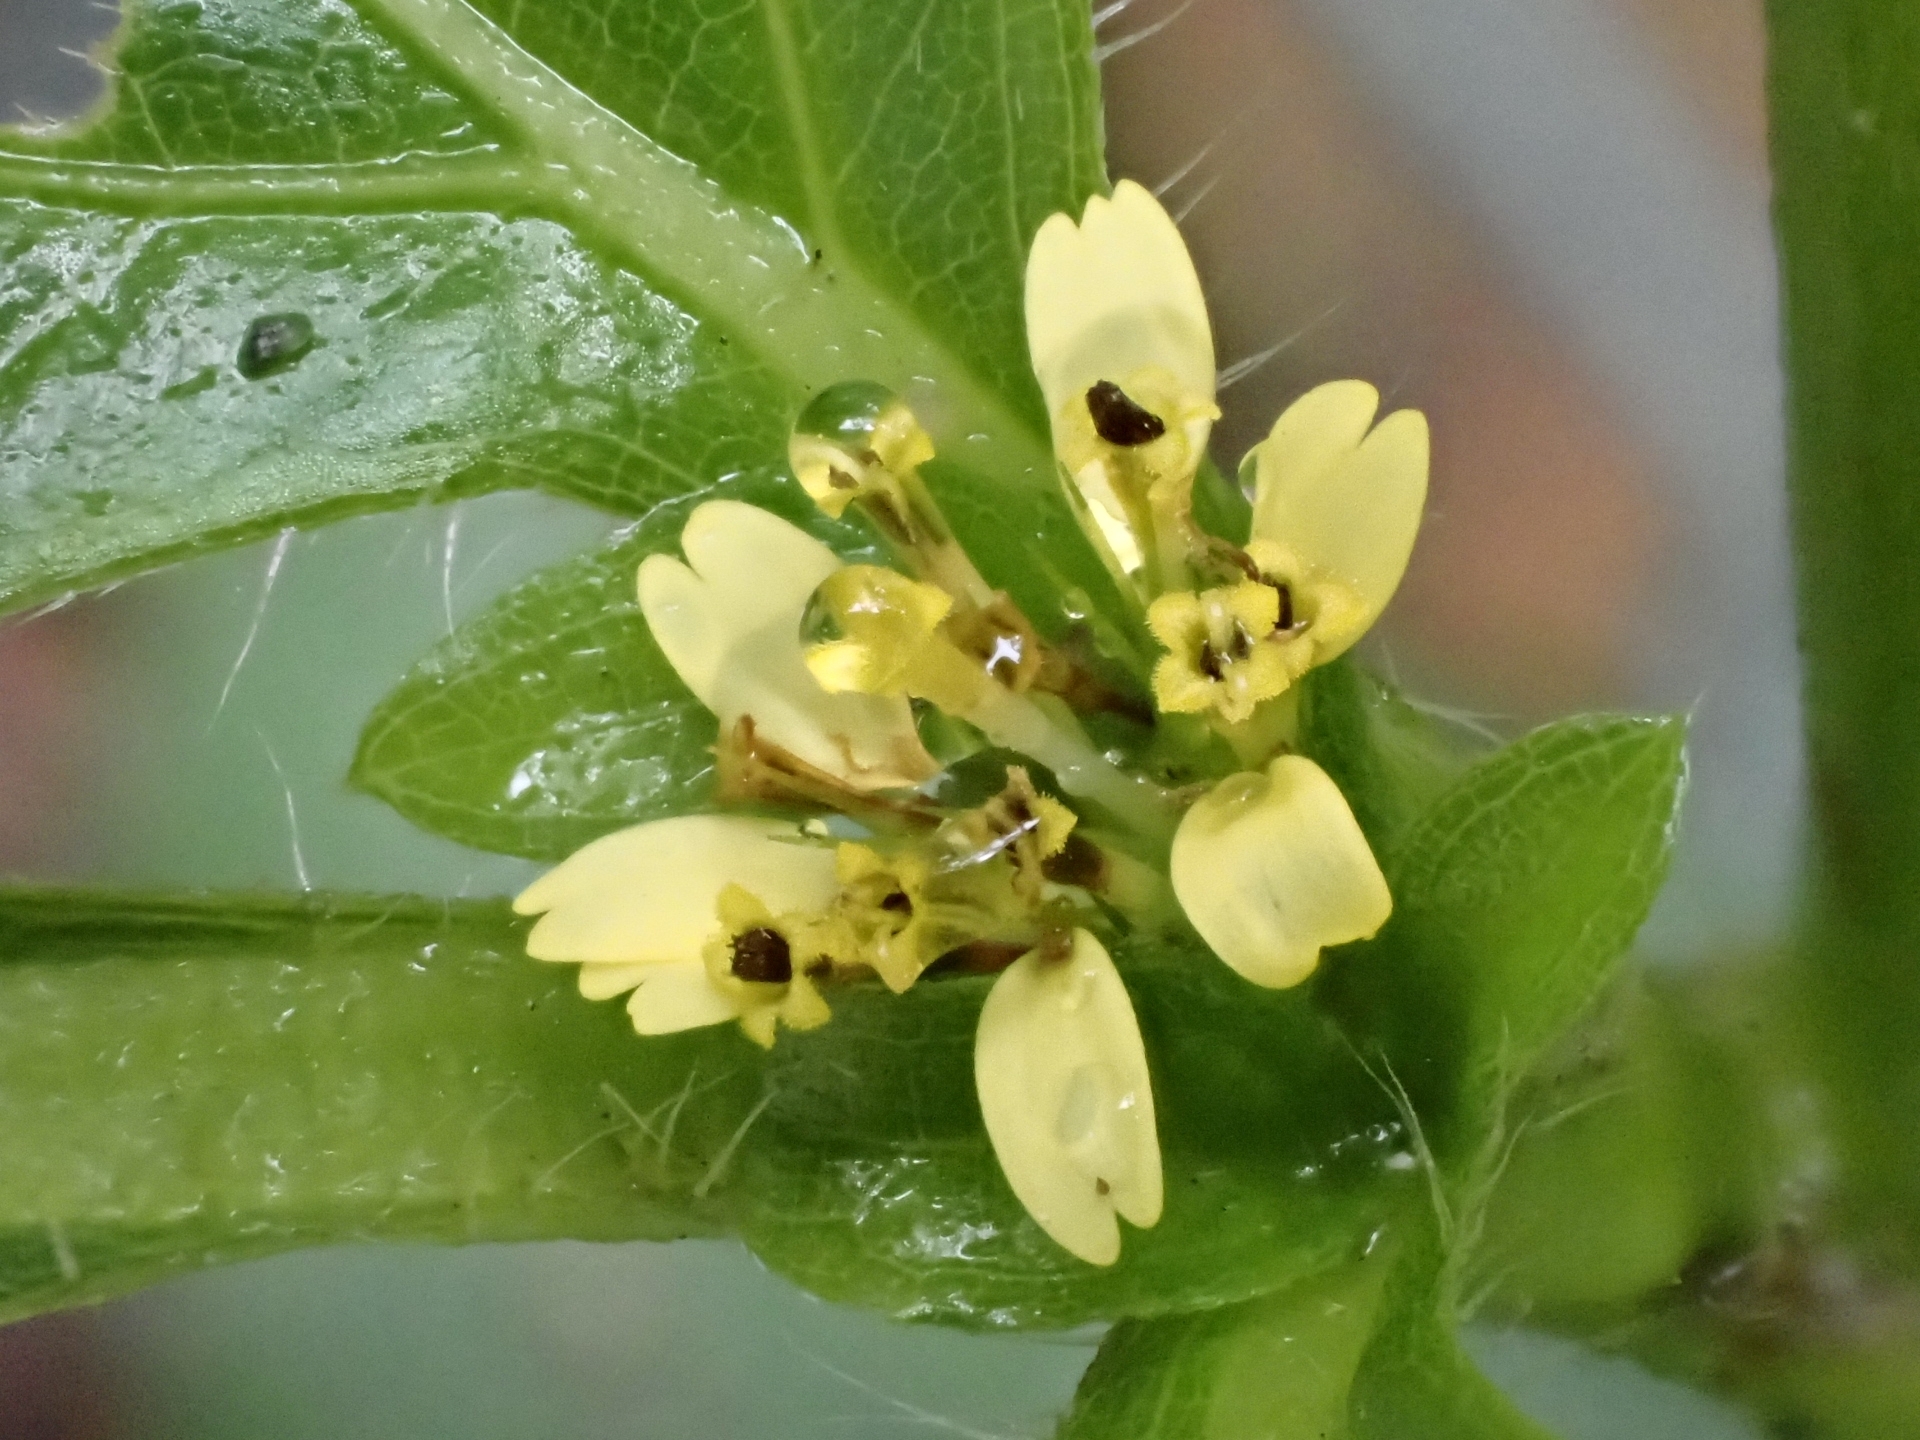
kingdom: Plantae
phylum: Tracheophyta
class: Magnoliopsida
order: Asterales
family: Asteraceae
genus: Indocypraea
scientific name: Indocypraea montana
